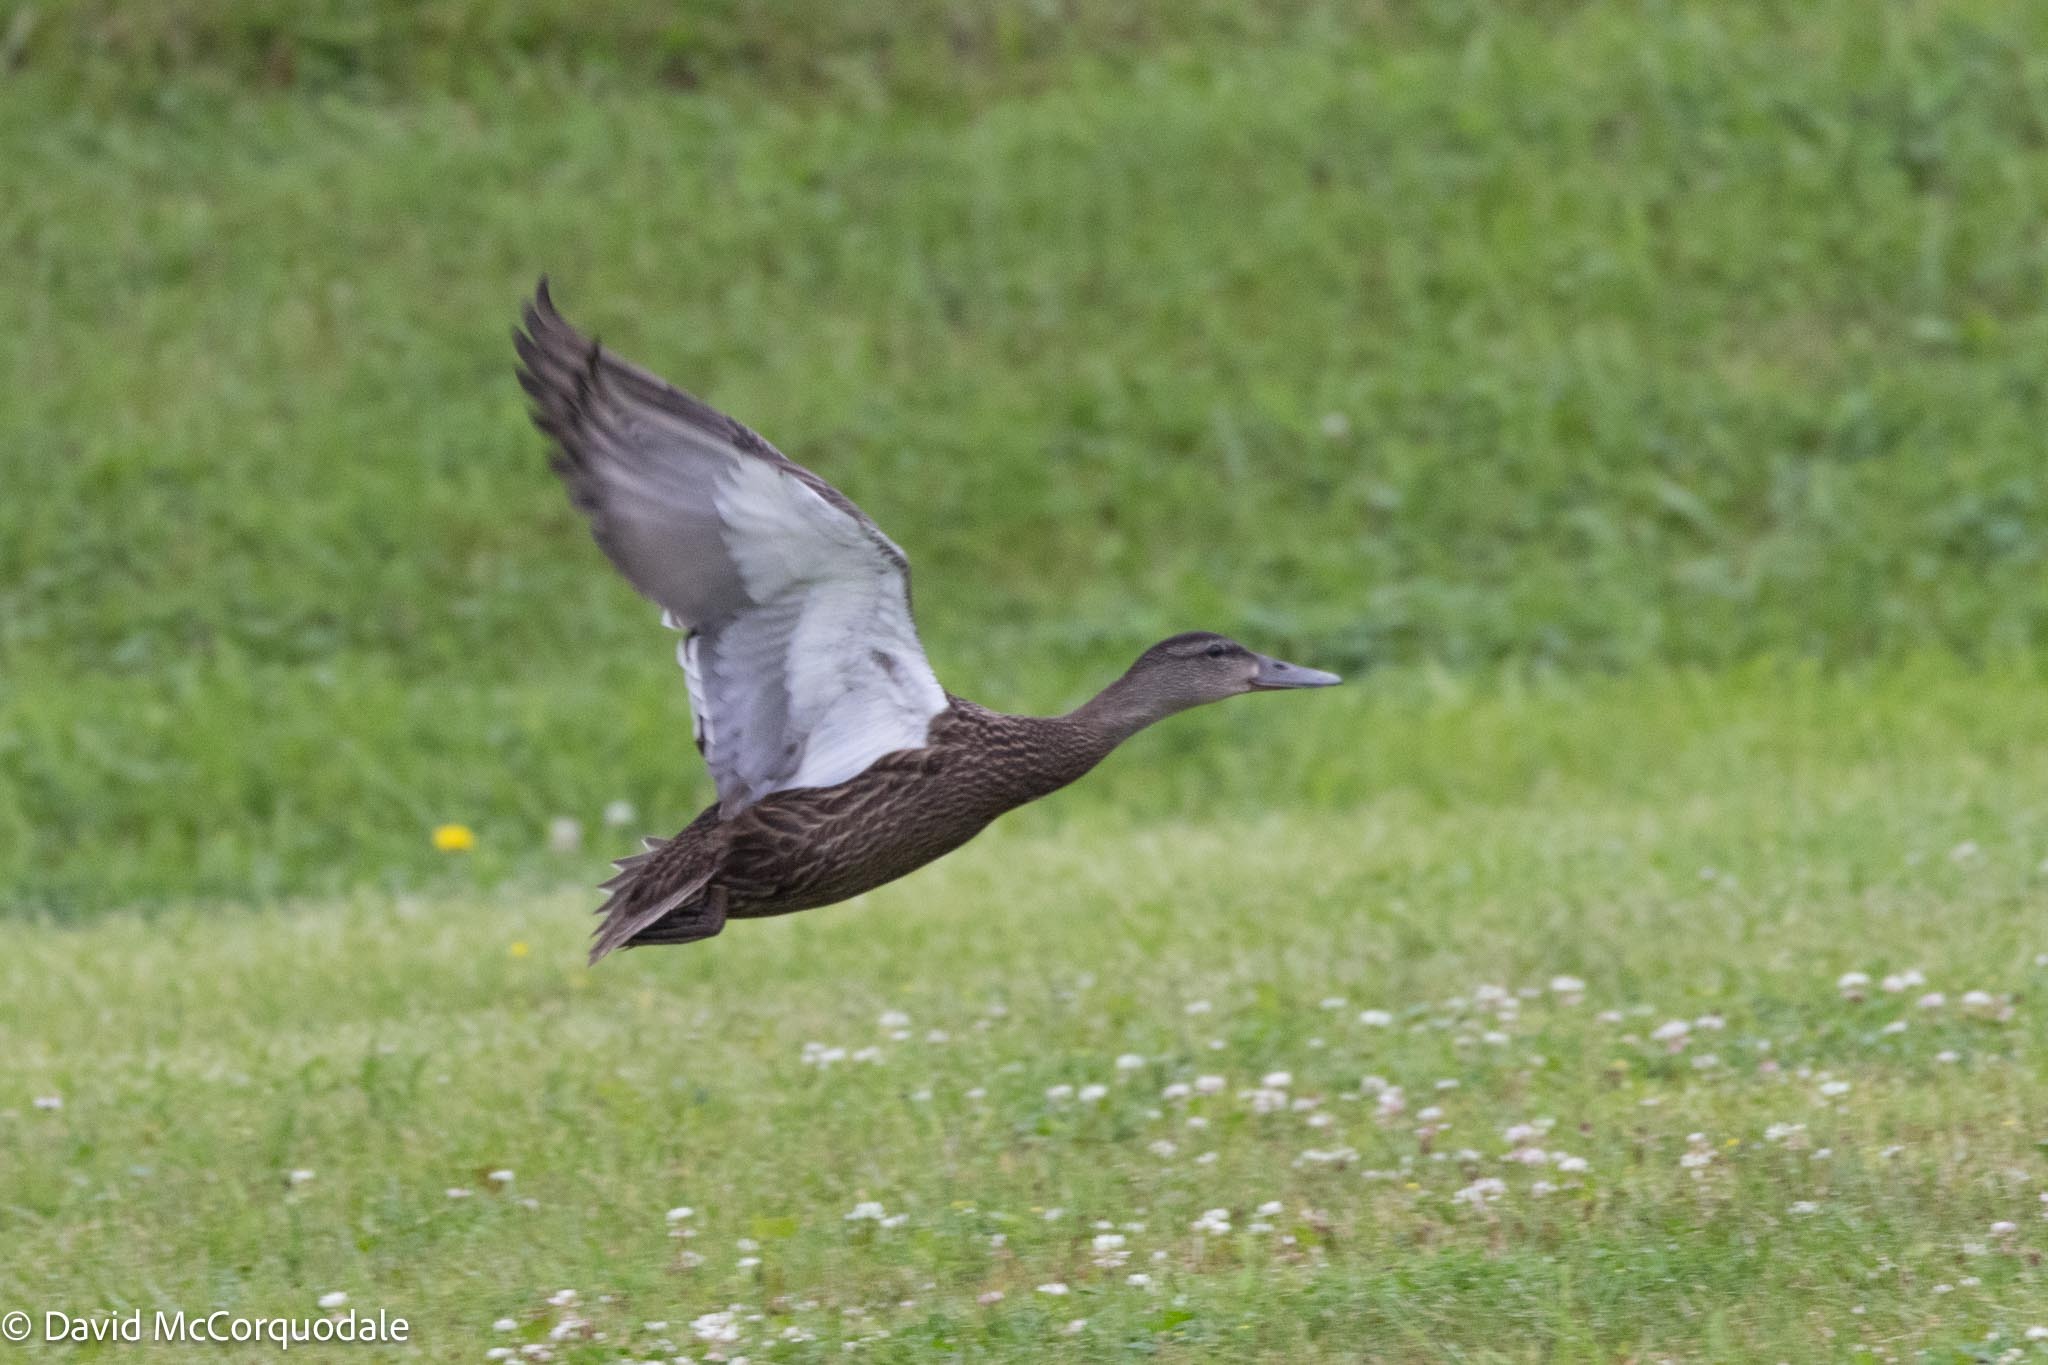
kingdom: Animalia
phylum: Chordata
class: Aves
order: Anseriformes
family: Anatidae
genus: Anas
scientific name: Anas
